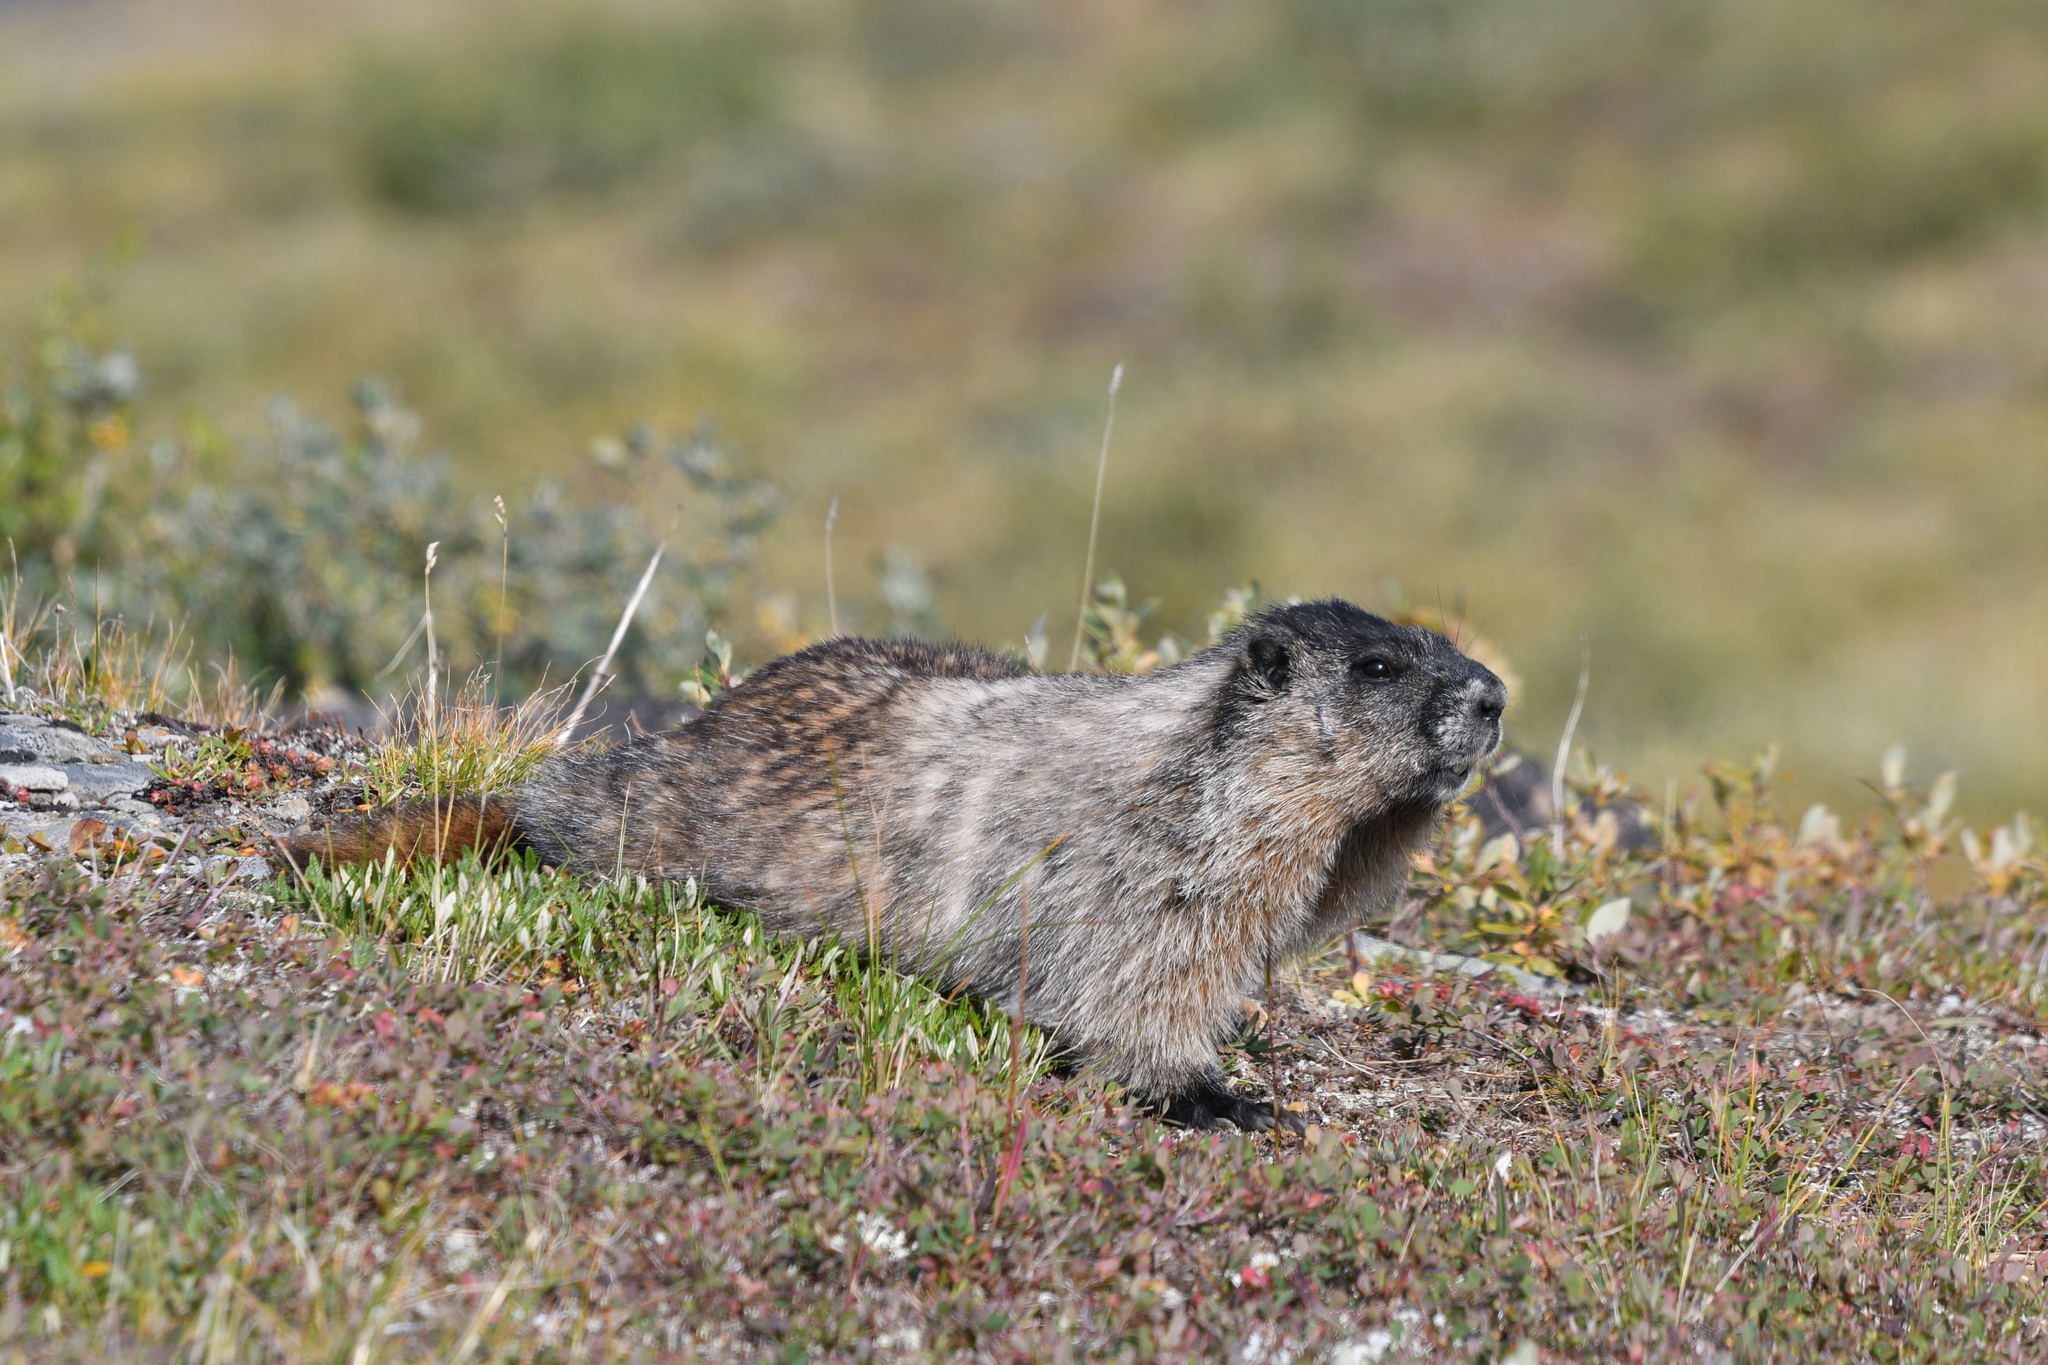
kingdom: Animalia
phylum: Chordata
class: Mammalia
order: Rodentia
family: Sciuridae
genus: Marmota
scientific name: Marmota caligata
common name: Hoary marmot
